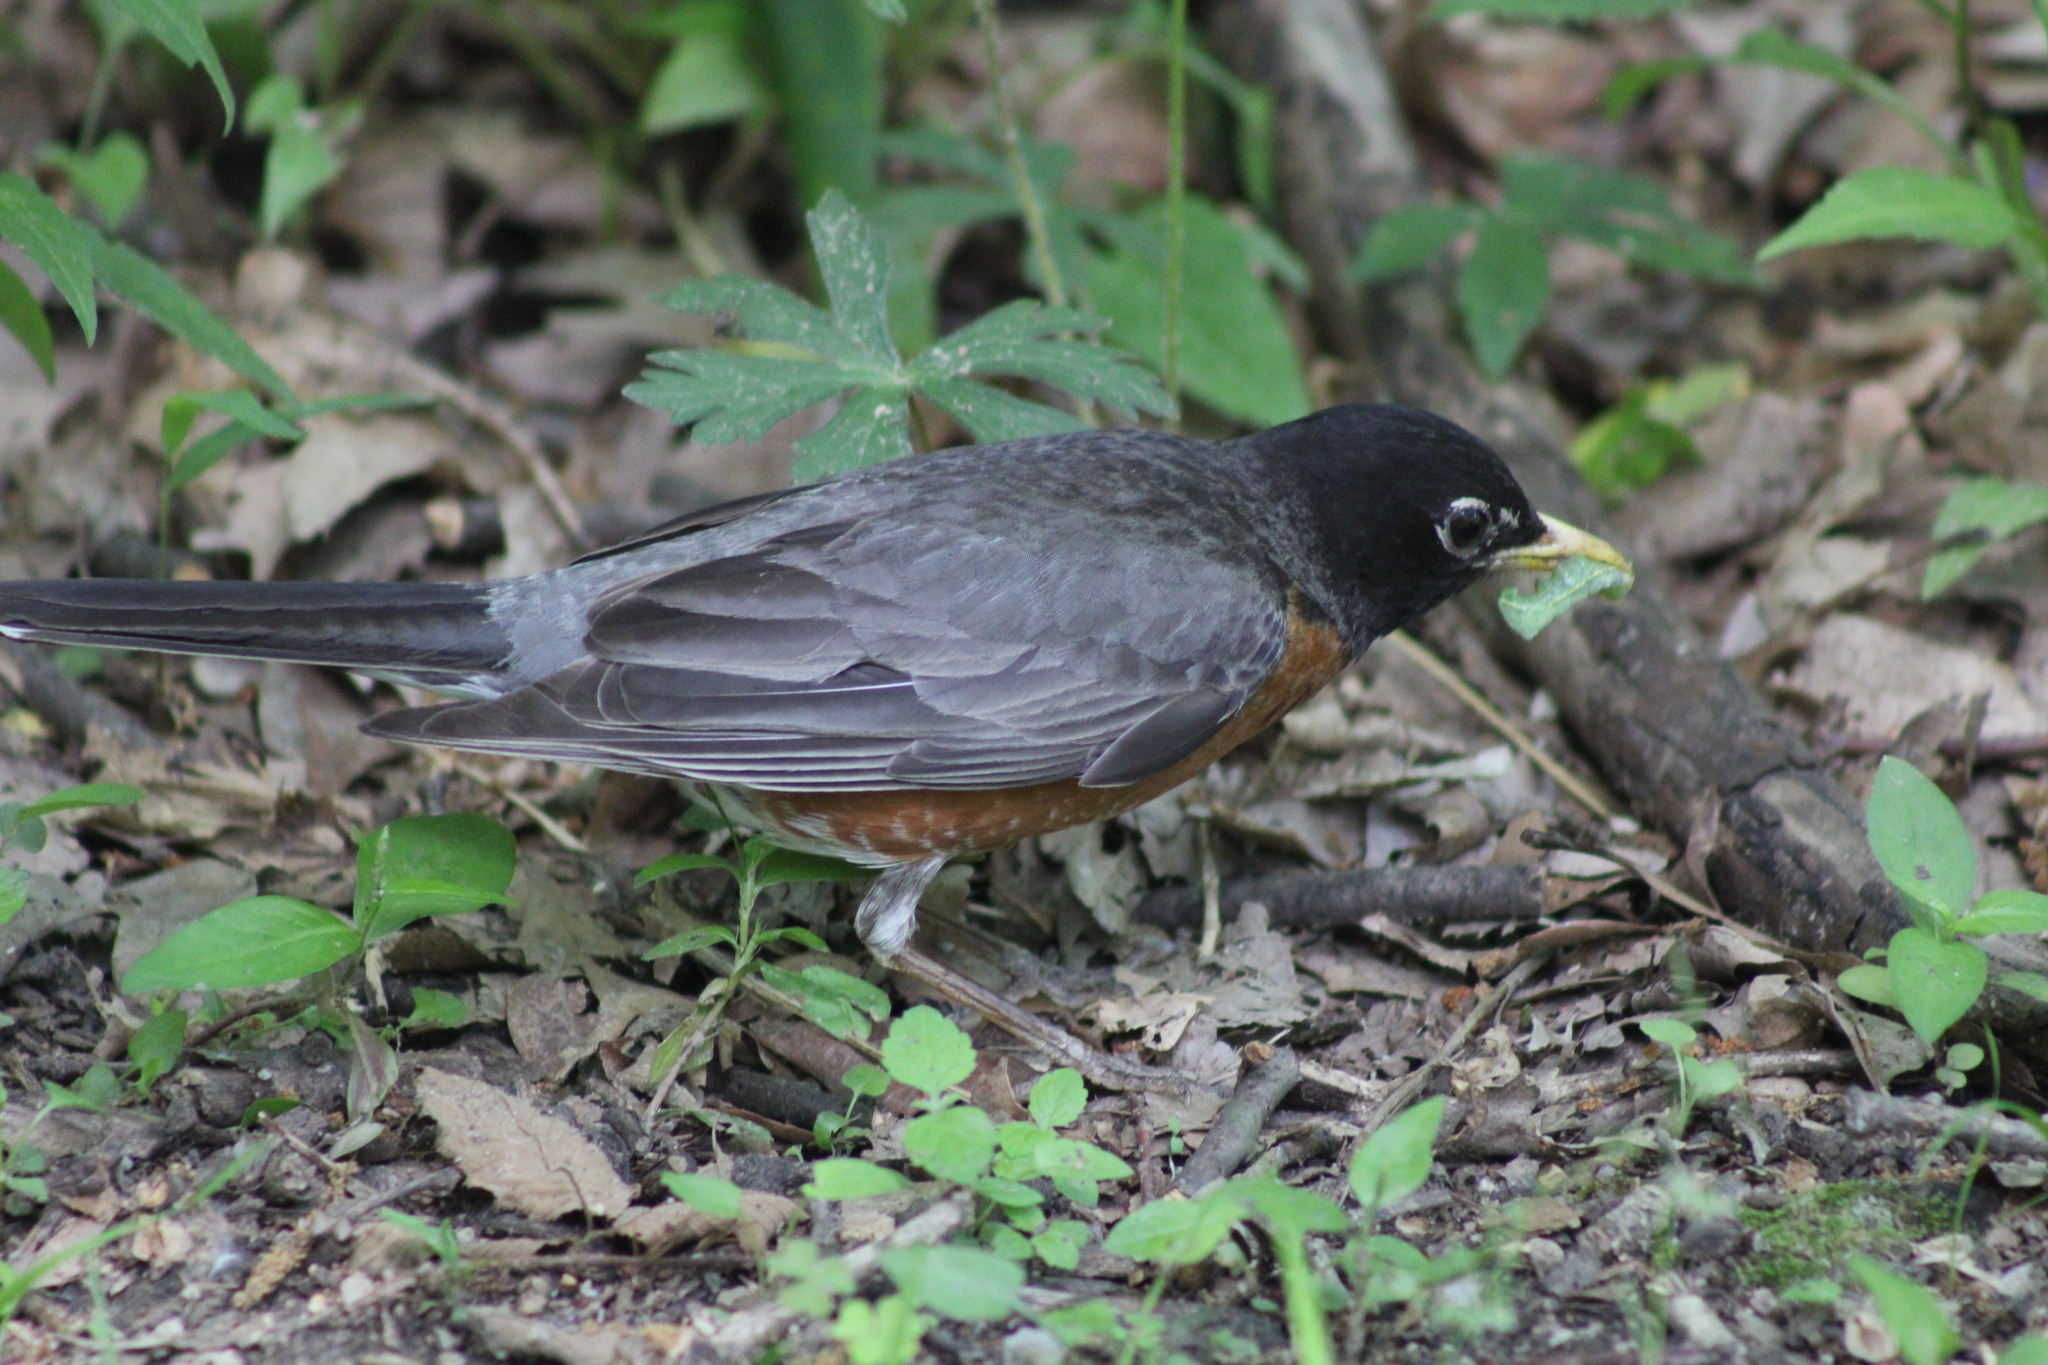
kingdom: Animalia
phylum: Chordata
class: Aves
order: Passeriformes
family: Turdidae
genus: Turdus
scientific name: Turdus migratorius
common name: American robin
